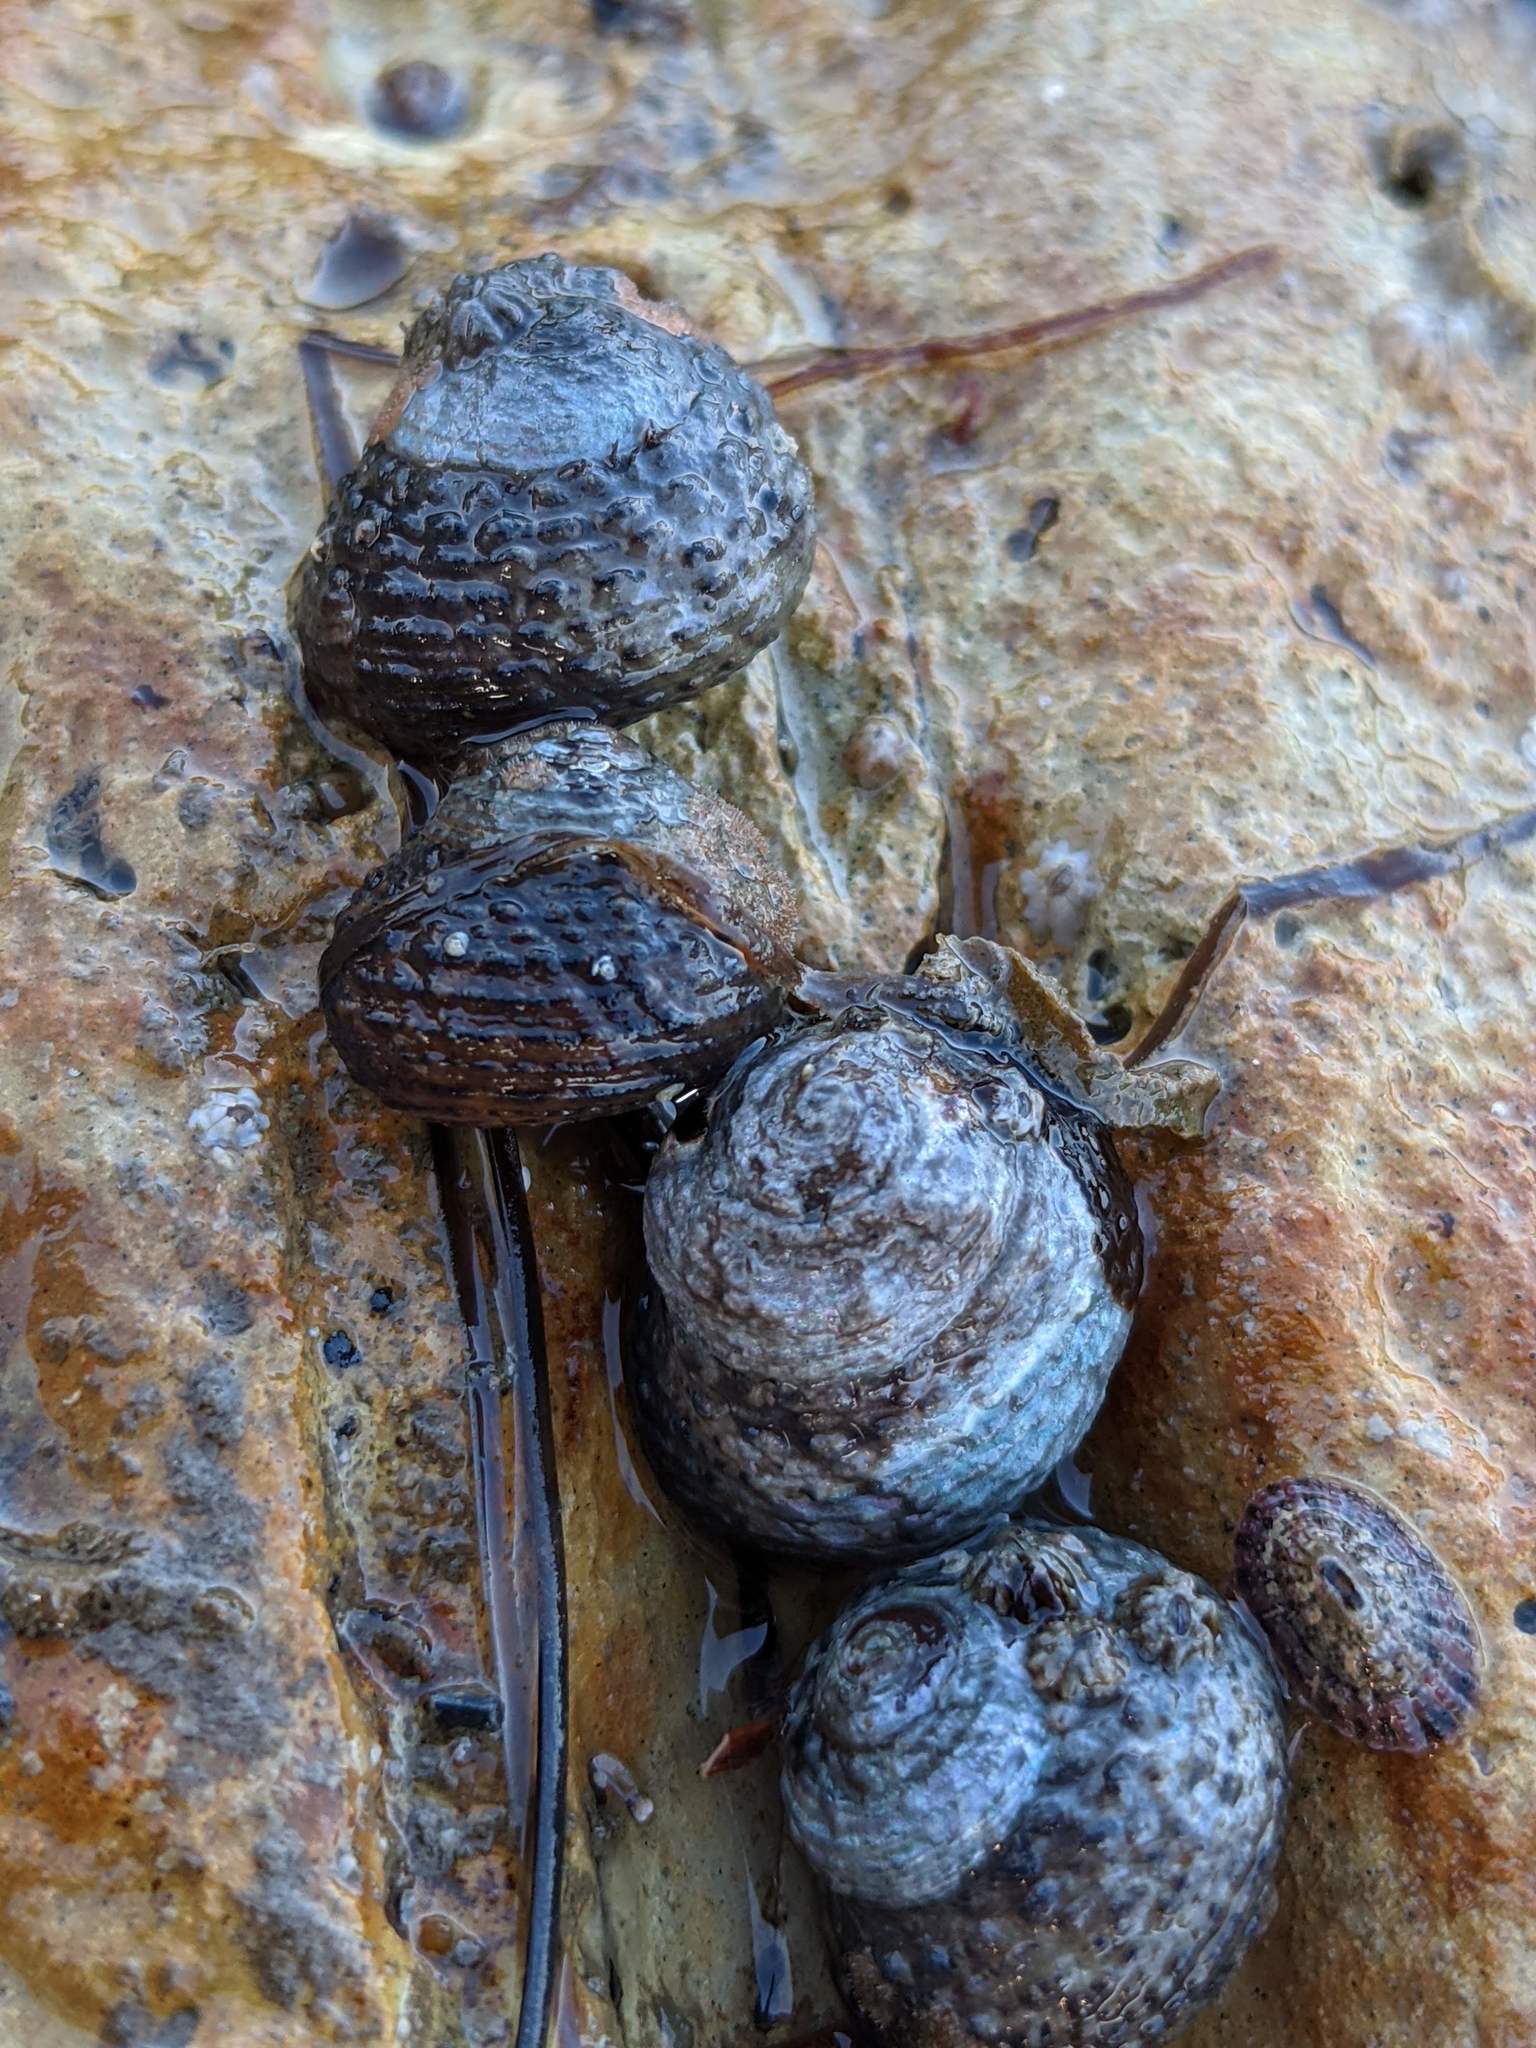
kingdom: Animalia
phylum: Mollusca
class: Gastropoda
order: Trochida
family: Tegulidae
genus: Tegula
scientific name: Tegula eiseni
